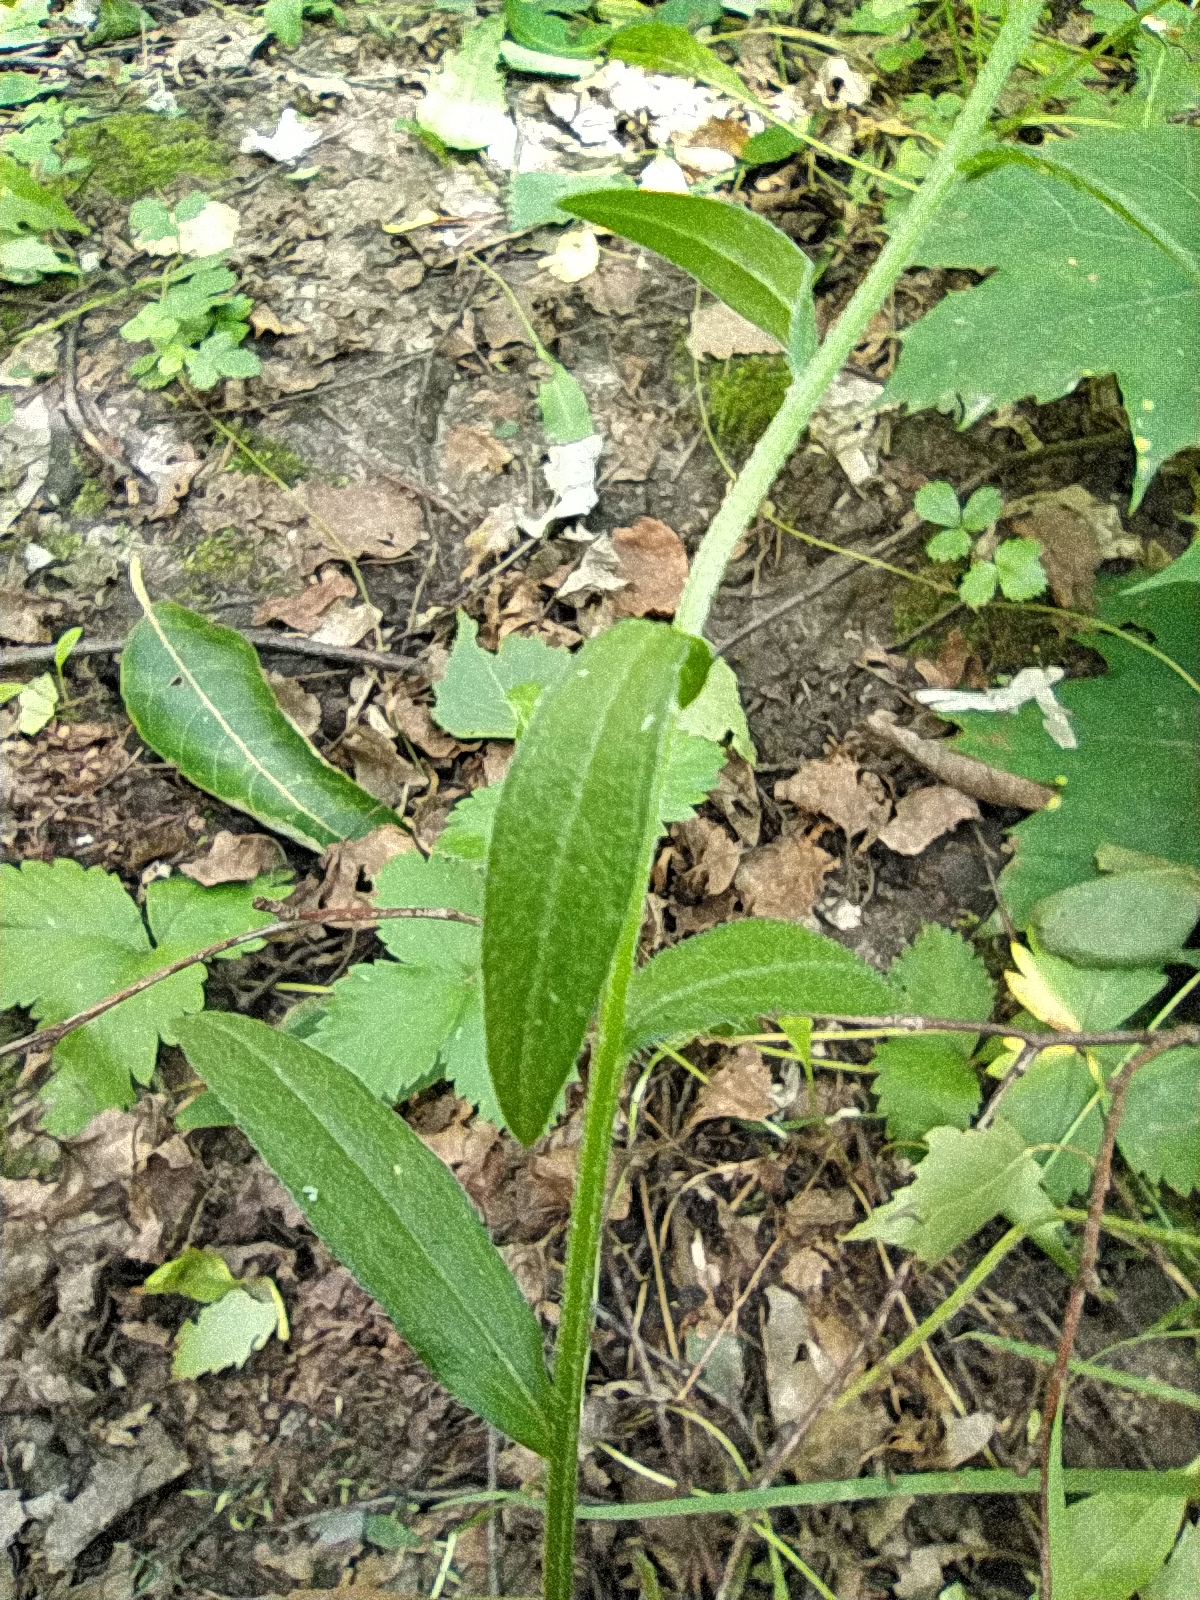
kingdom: Plantae
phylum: Tracheophyta
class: Magnoliopsida
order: Asterales
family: Asteraceae
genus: Erigeron
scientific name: Erigeron annuus
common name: Tall fleabane
